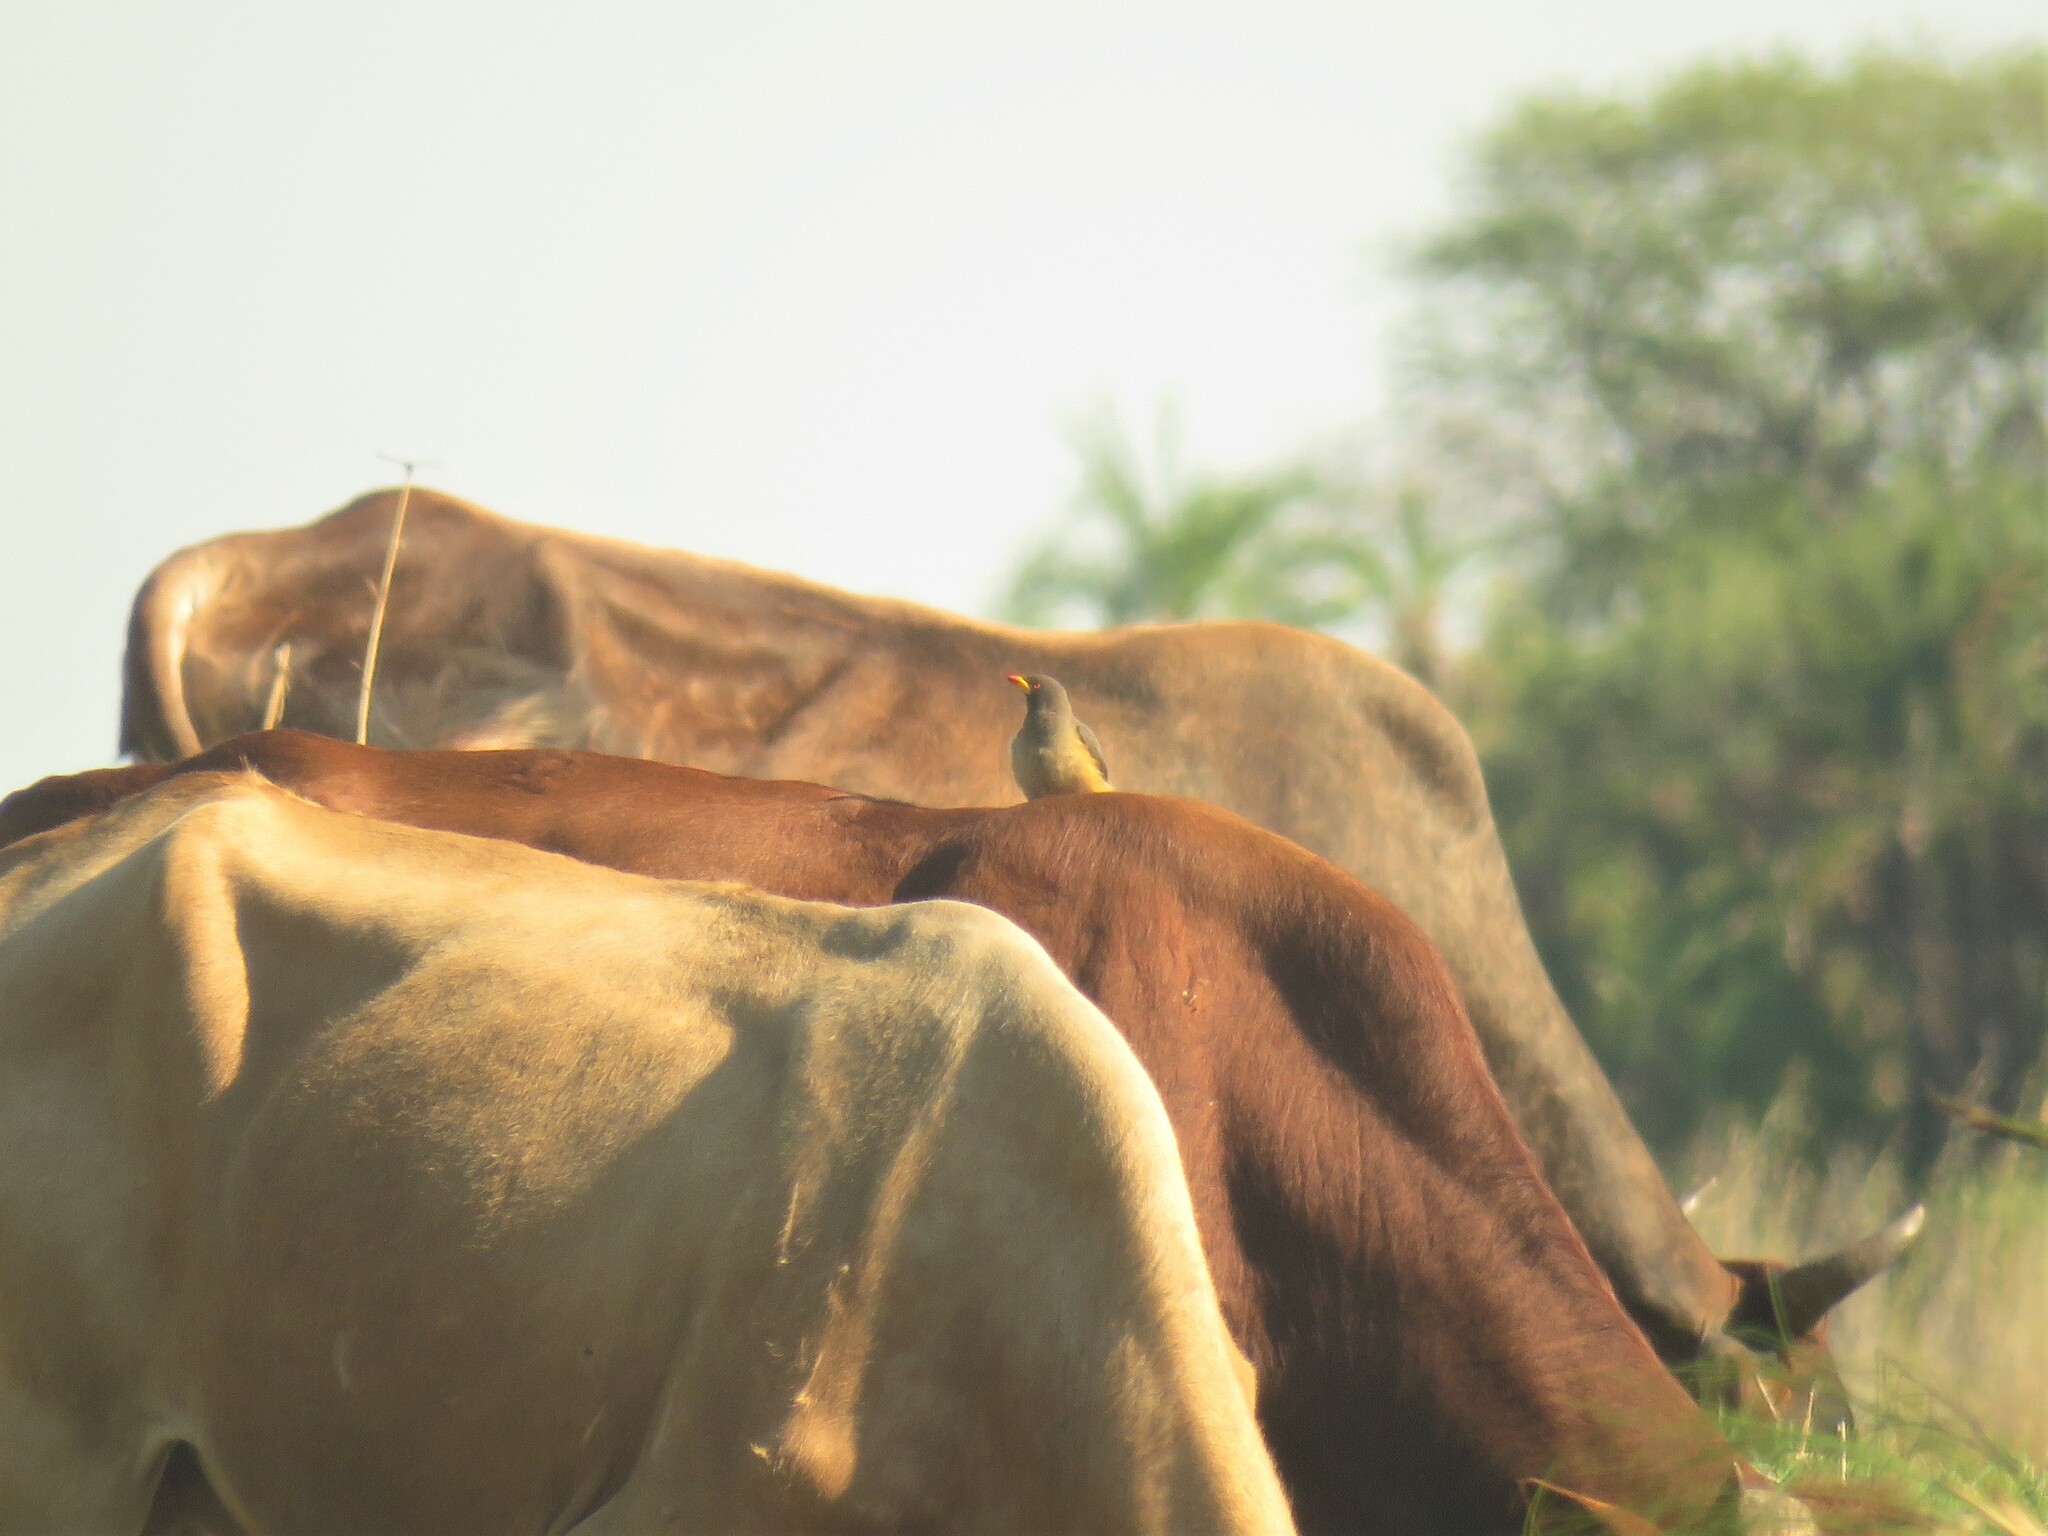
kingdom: Animalia
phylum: Chordata
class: Aves
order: Passeriformes
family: Buphagidae
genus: Buphagus
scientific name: Buphagus africanus
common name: Yellow-billed oxpecker
